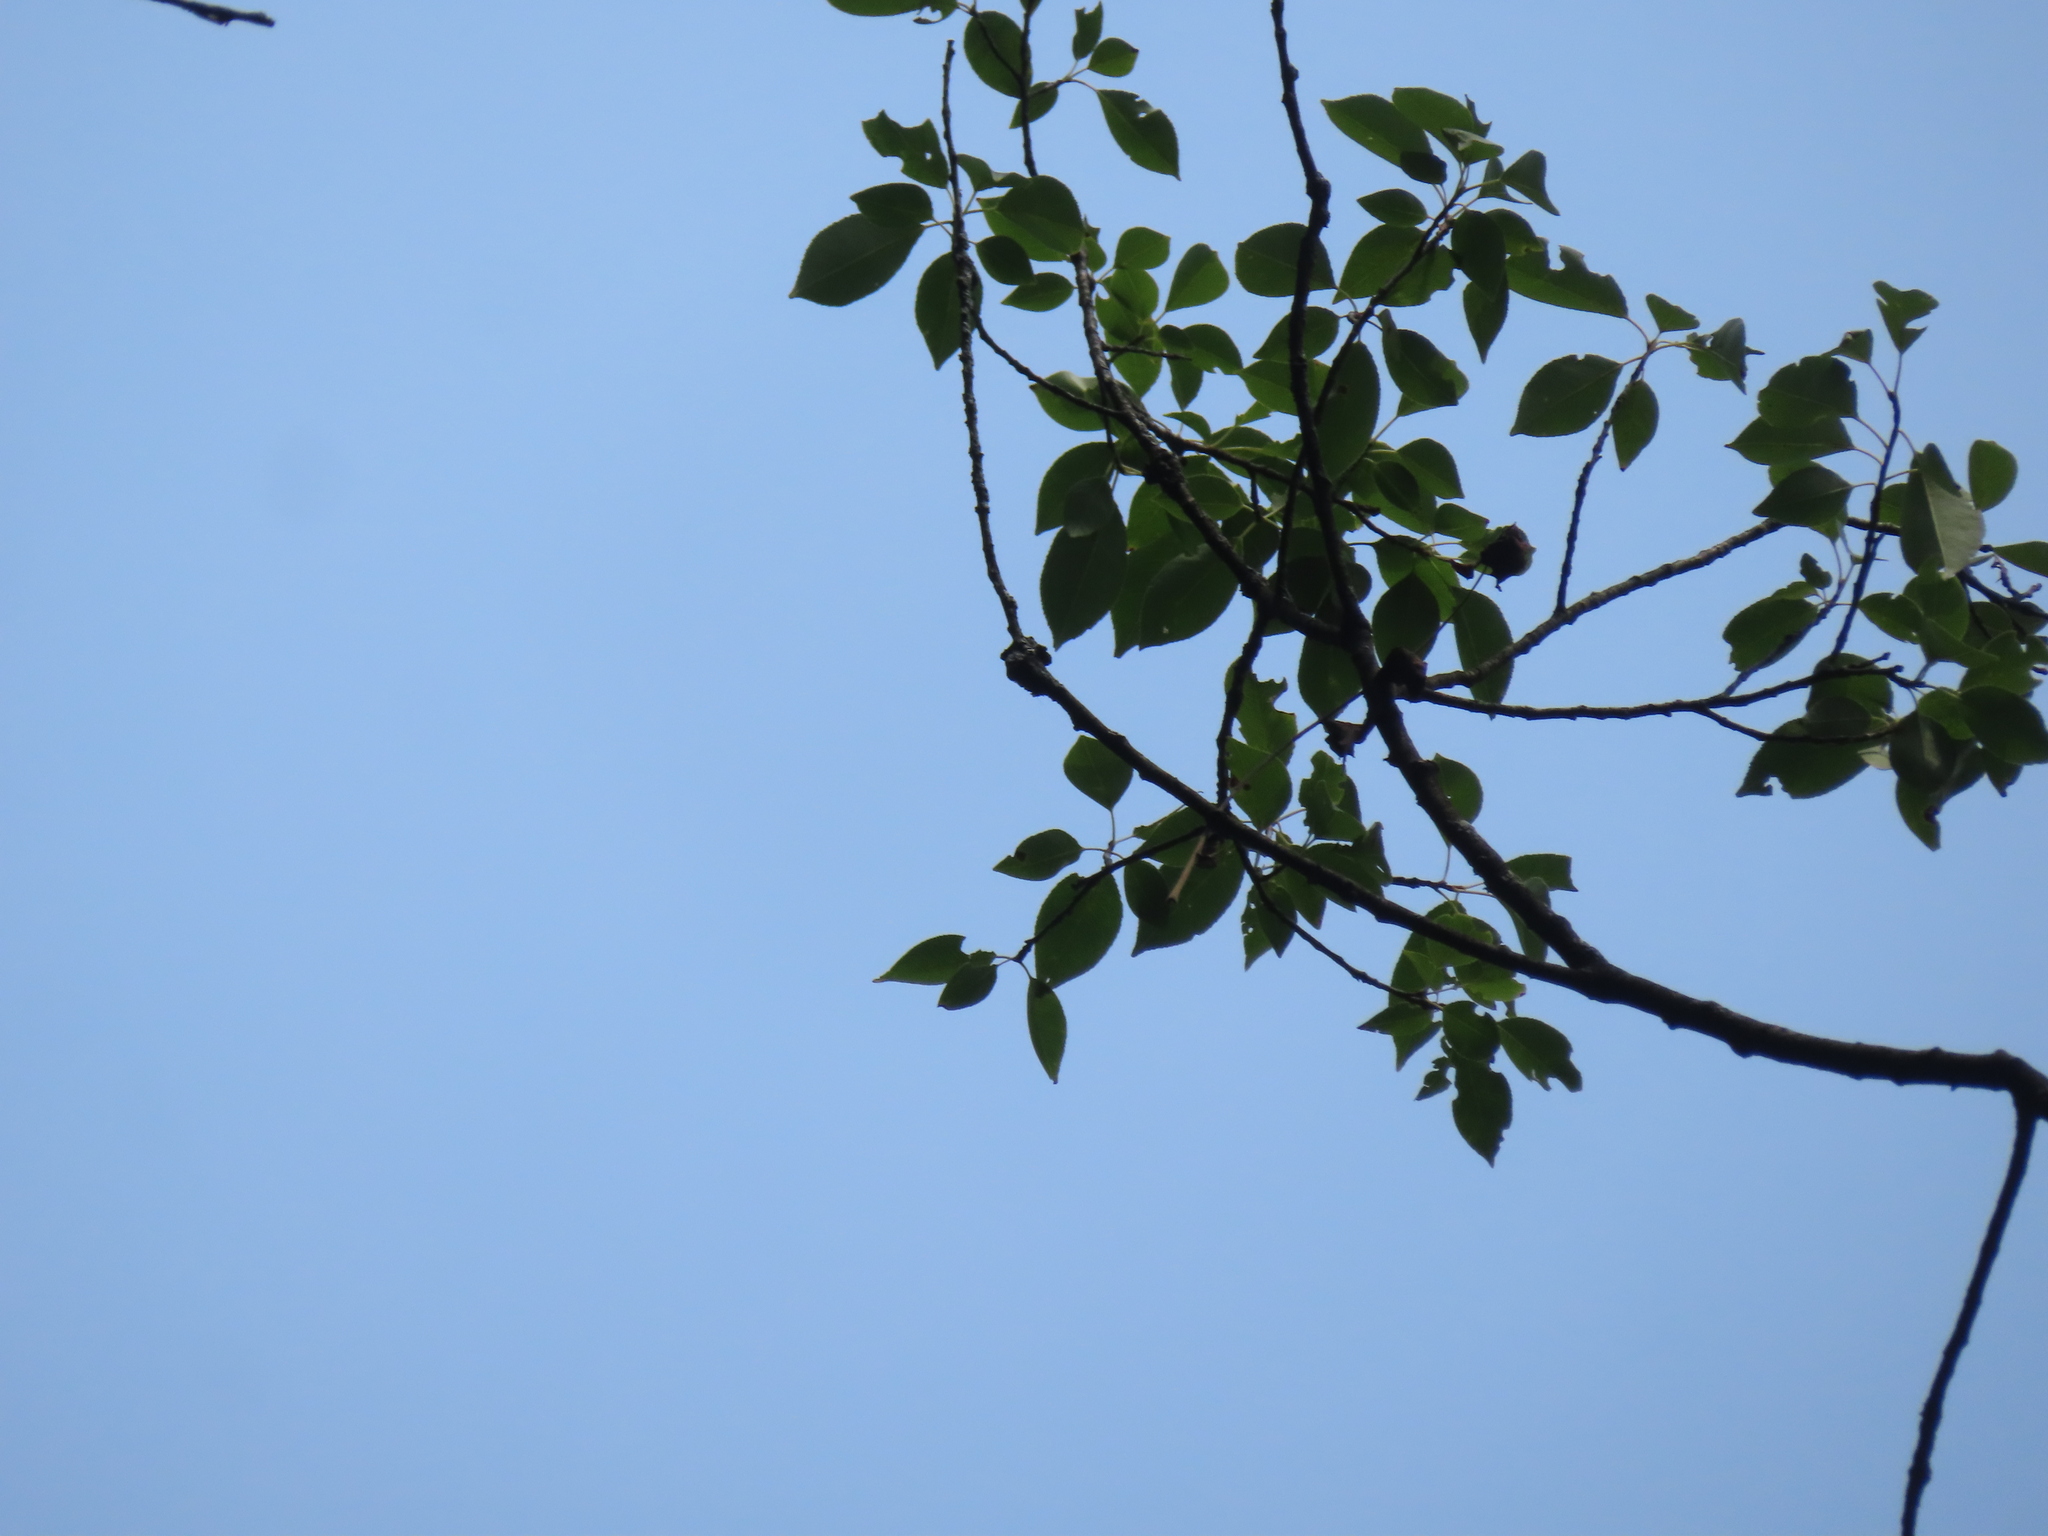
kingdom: Plantae
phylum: Tracheophyta
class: Magnoliopsida
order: Rosales
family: Rosaceae
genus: Prunus
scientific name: Prunus serotina
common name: Black cherry
